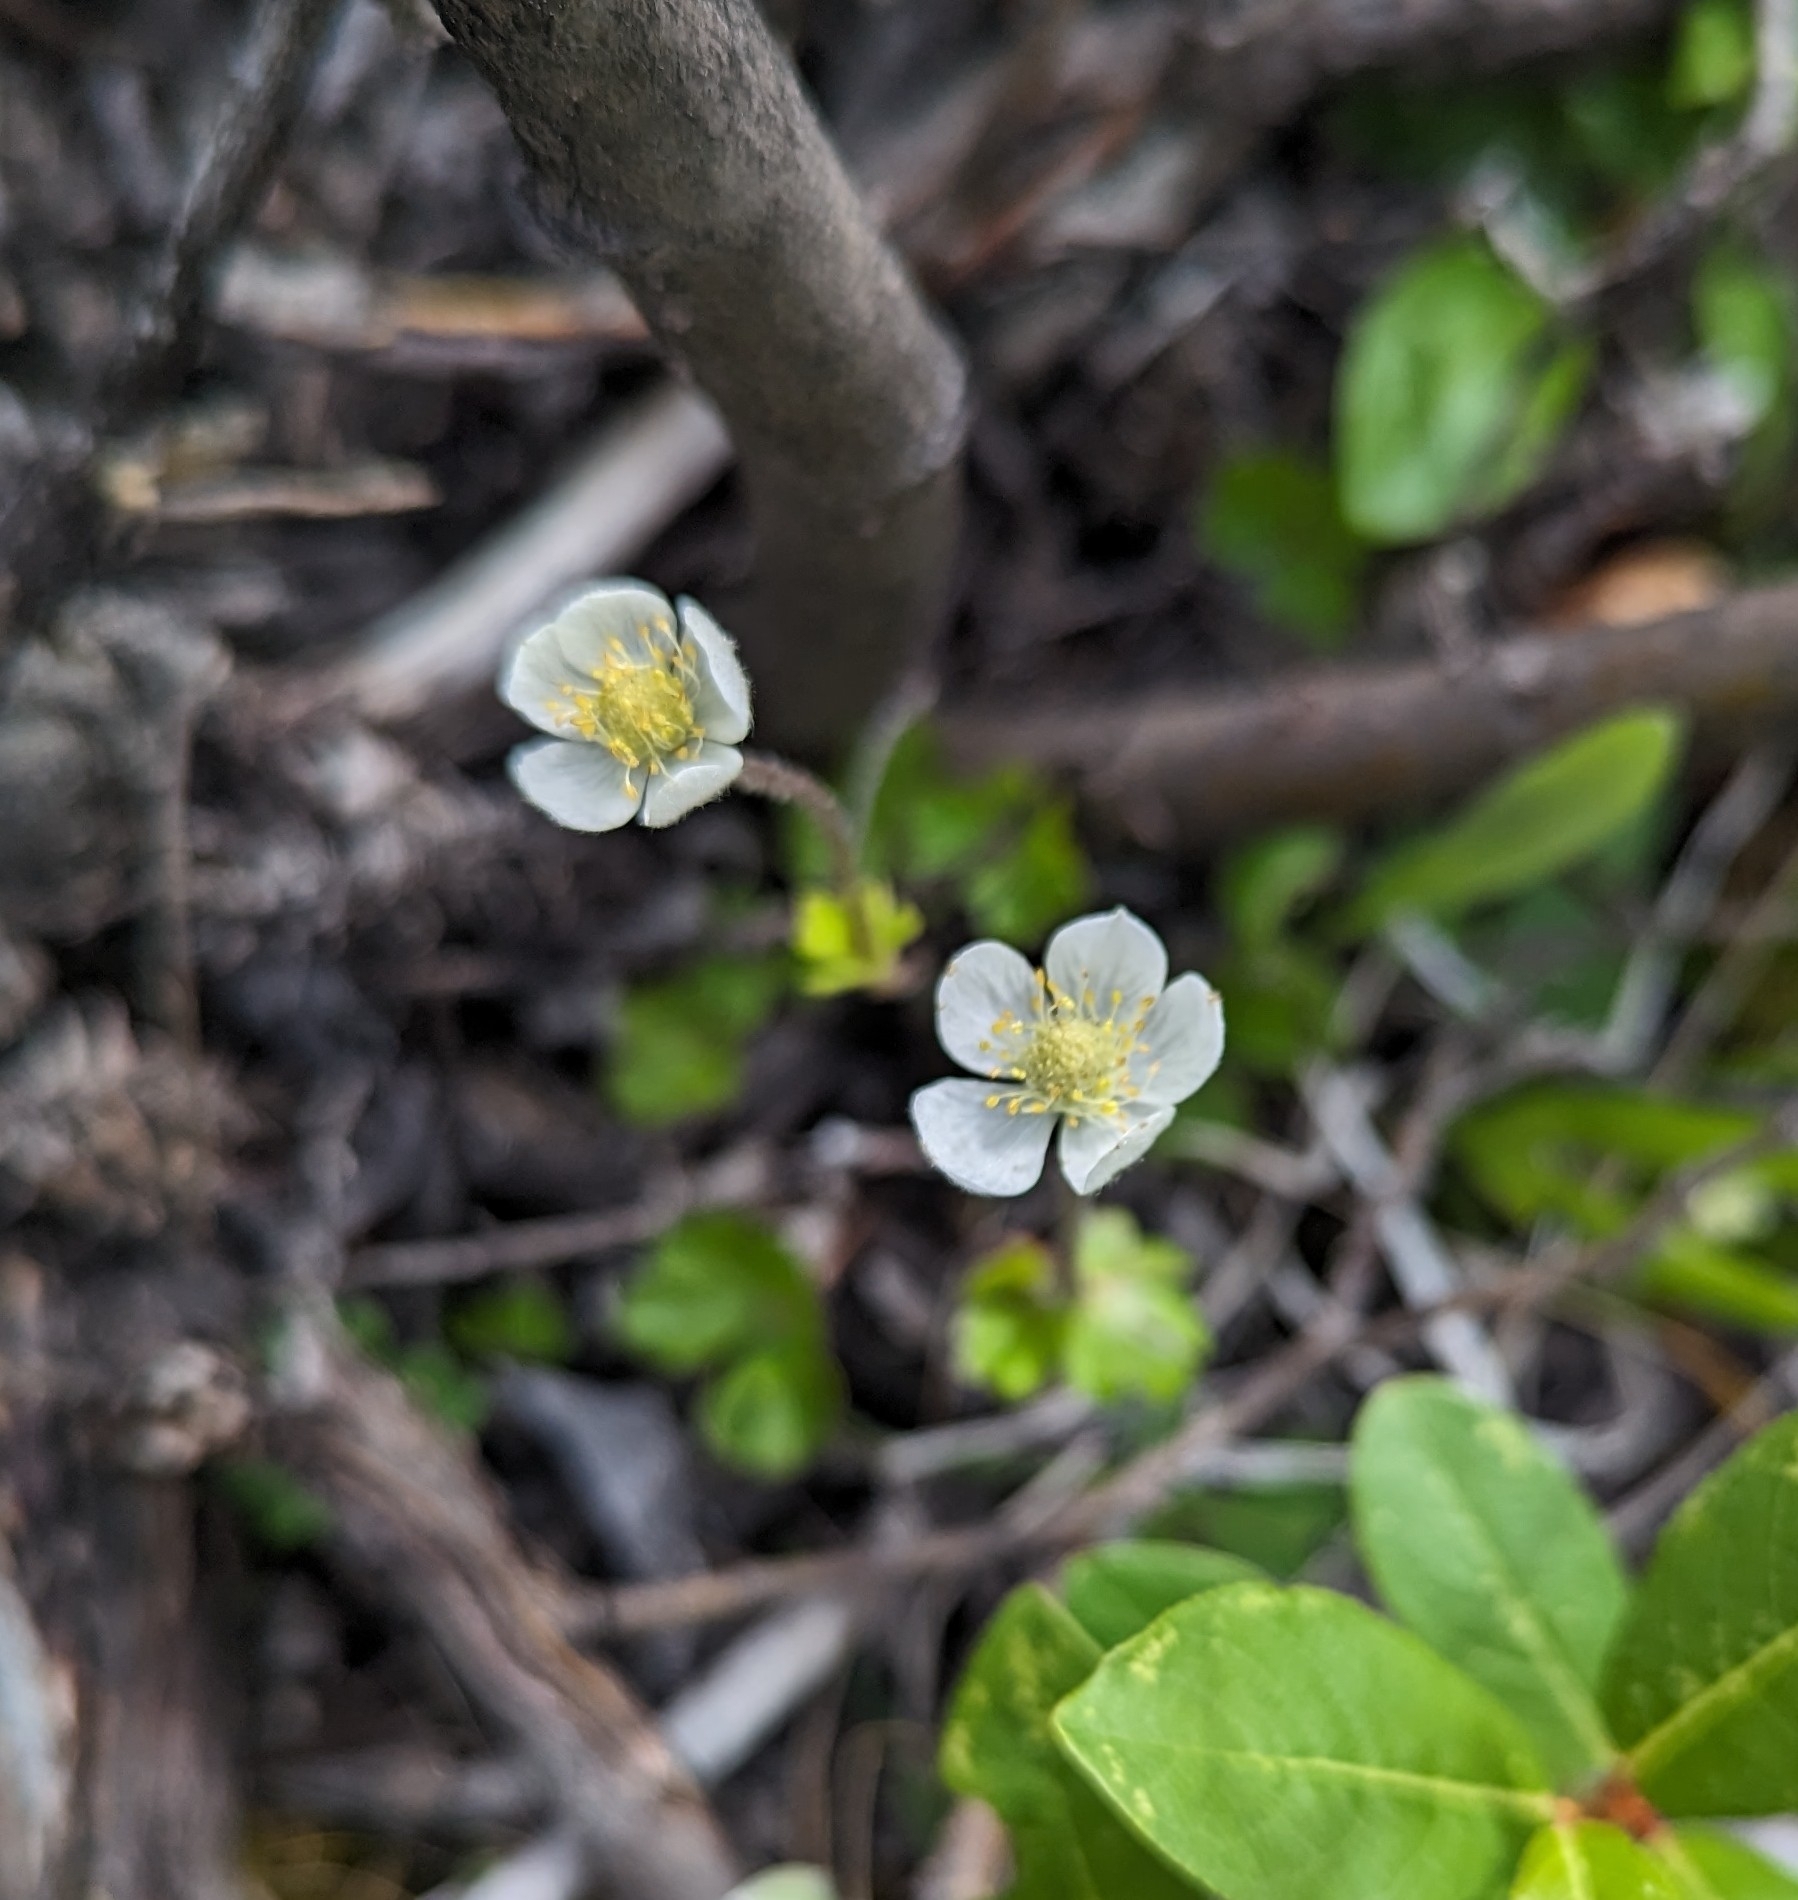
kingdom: Plantae
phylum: Tracheophyta
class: Magnoliopsida
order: Ranunculales
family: Ranunculaceae
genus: Anemone
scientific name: Anemone parviflora
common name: Northern anemone
